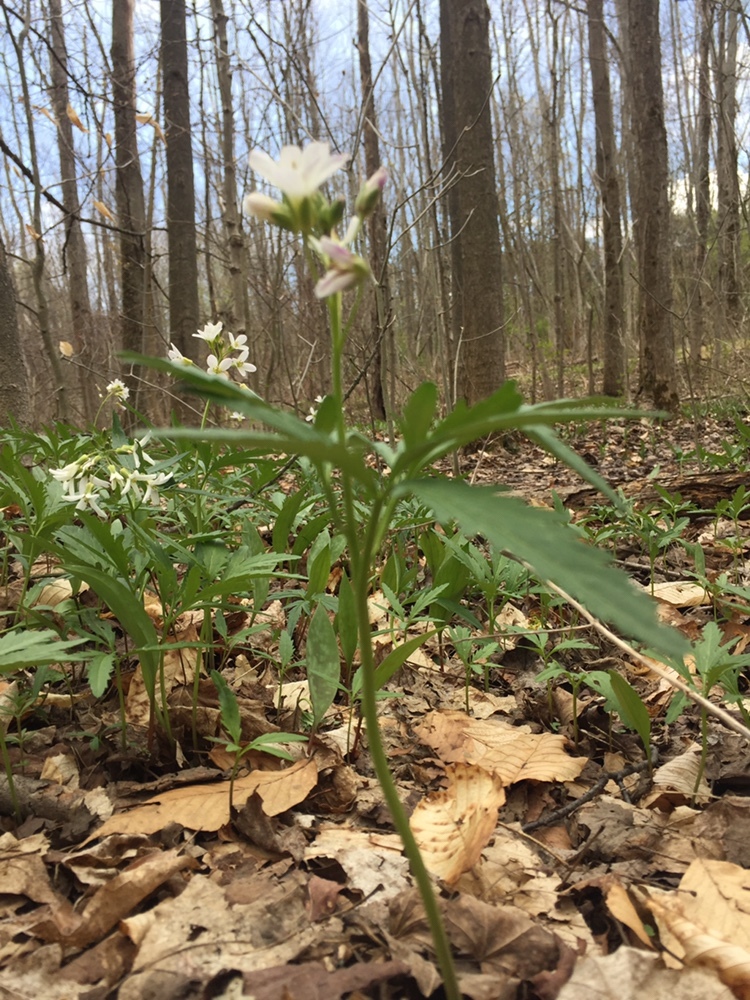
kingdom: Plantae
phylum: Tracheophyta
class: Magnoliopsida
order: Brassicales
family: Brassicaceae
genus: Cardamine
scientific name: Cardamine concatenata
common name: Cut-leaf toothcup
